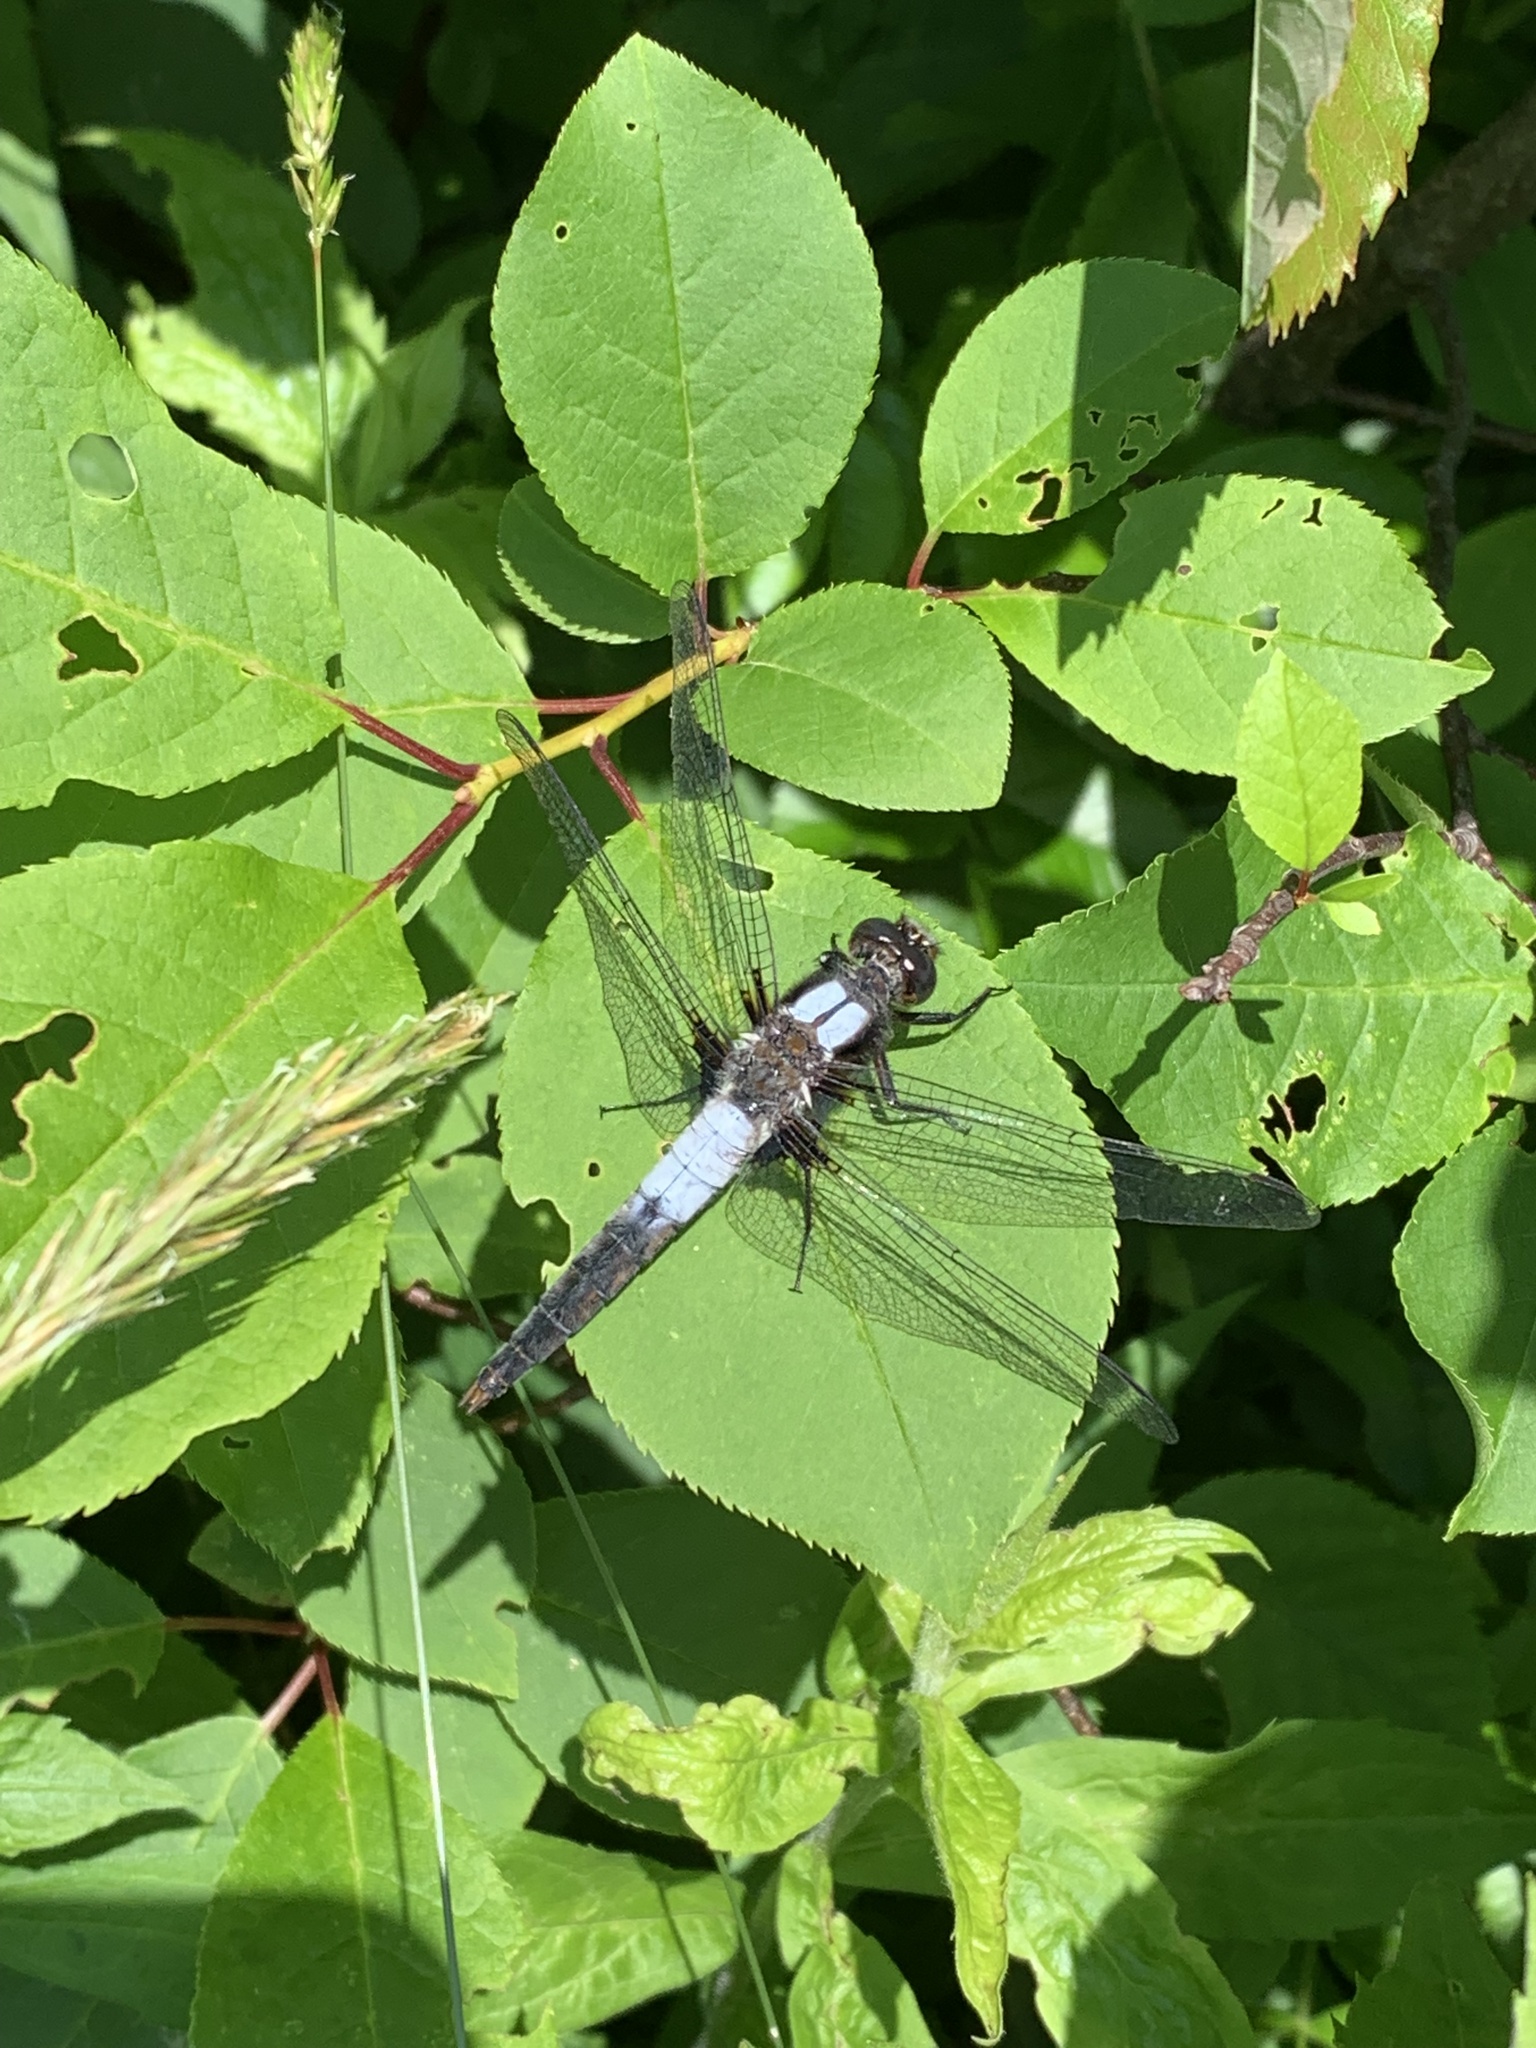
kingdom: Animalia
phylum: Arthropoda
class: Insecta
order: Odonata
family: Libellulidae
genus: Ladona
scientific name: Ladona julia
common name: Chalk-fronted corporal
